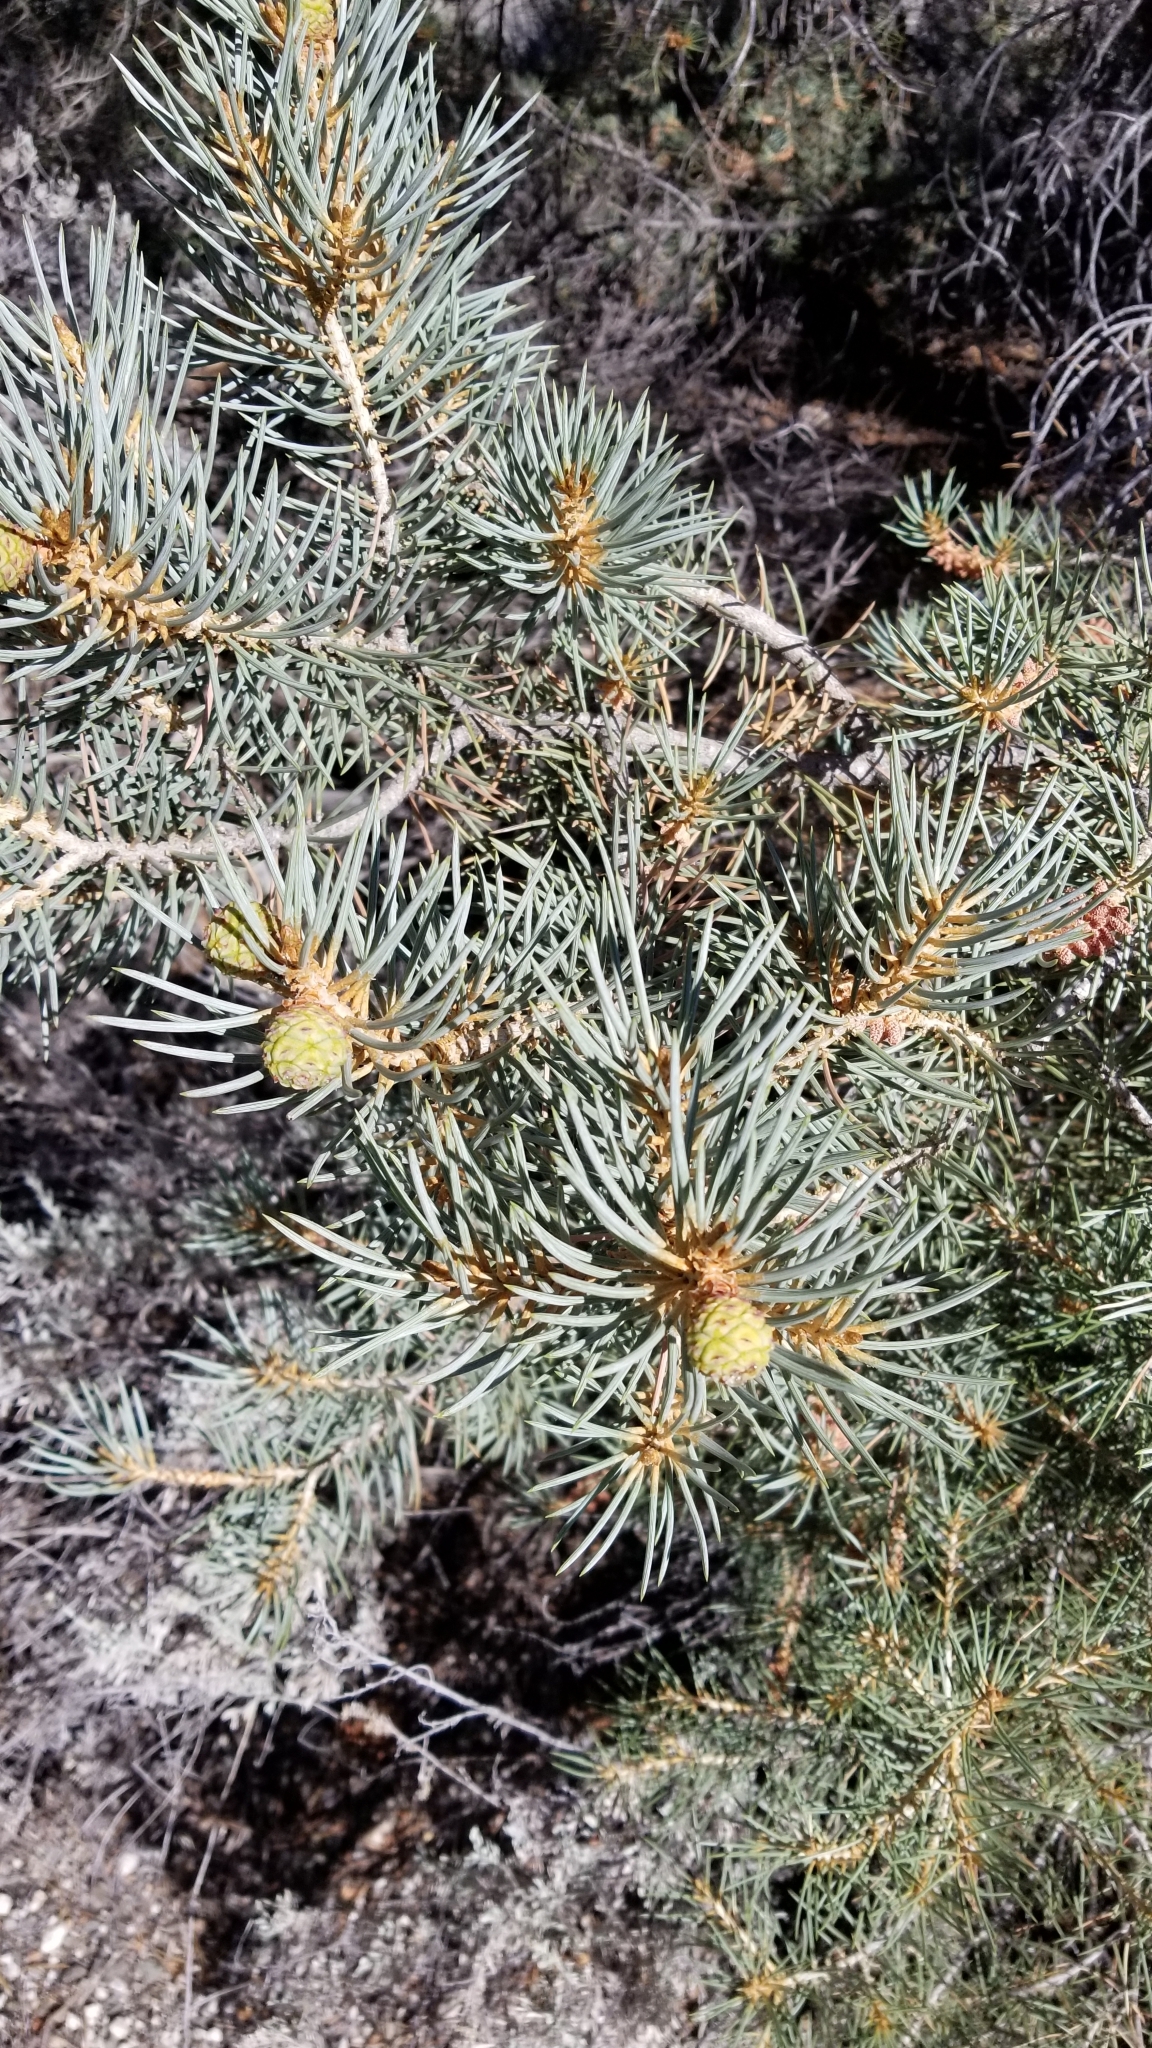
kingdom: Plantae
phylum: Tracheophyta
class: Pinopsida
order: Pinales
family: Pinaceae
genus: Pinus
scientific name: Pinus monophylla
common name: One-leaved nut pine
